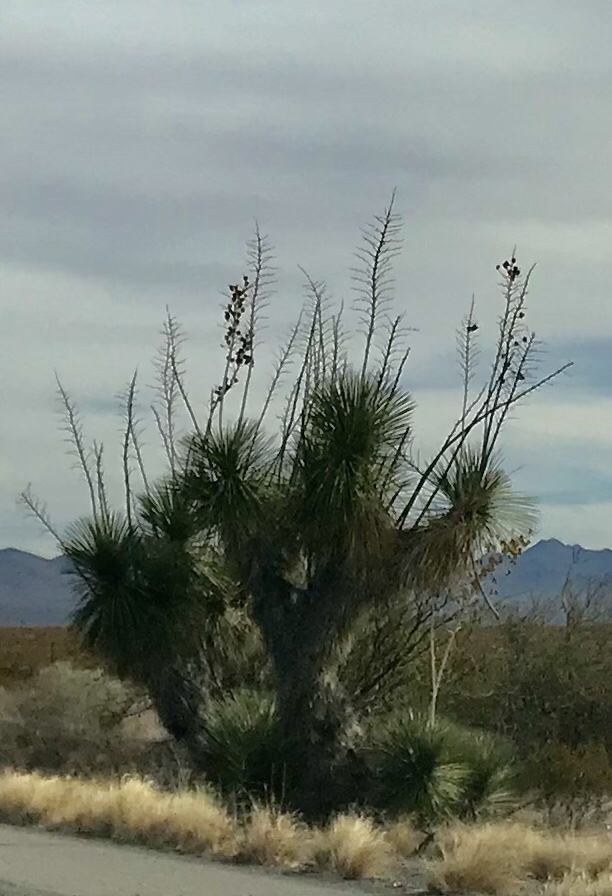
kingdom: Plantae
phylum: Tracheophyta
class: Liliopsida
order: Asparagales
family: Asparagaceae
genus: Yucca
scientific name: Yucca elata
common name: Palmella
